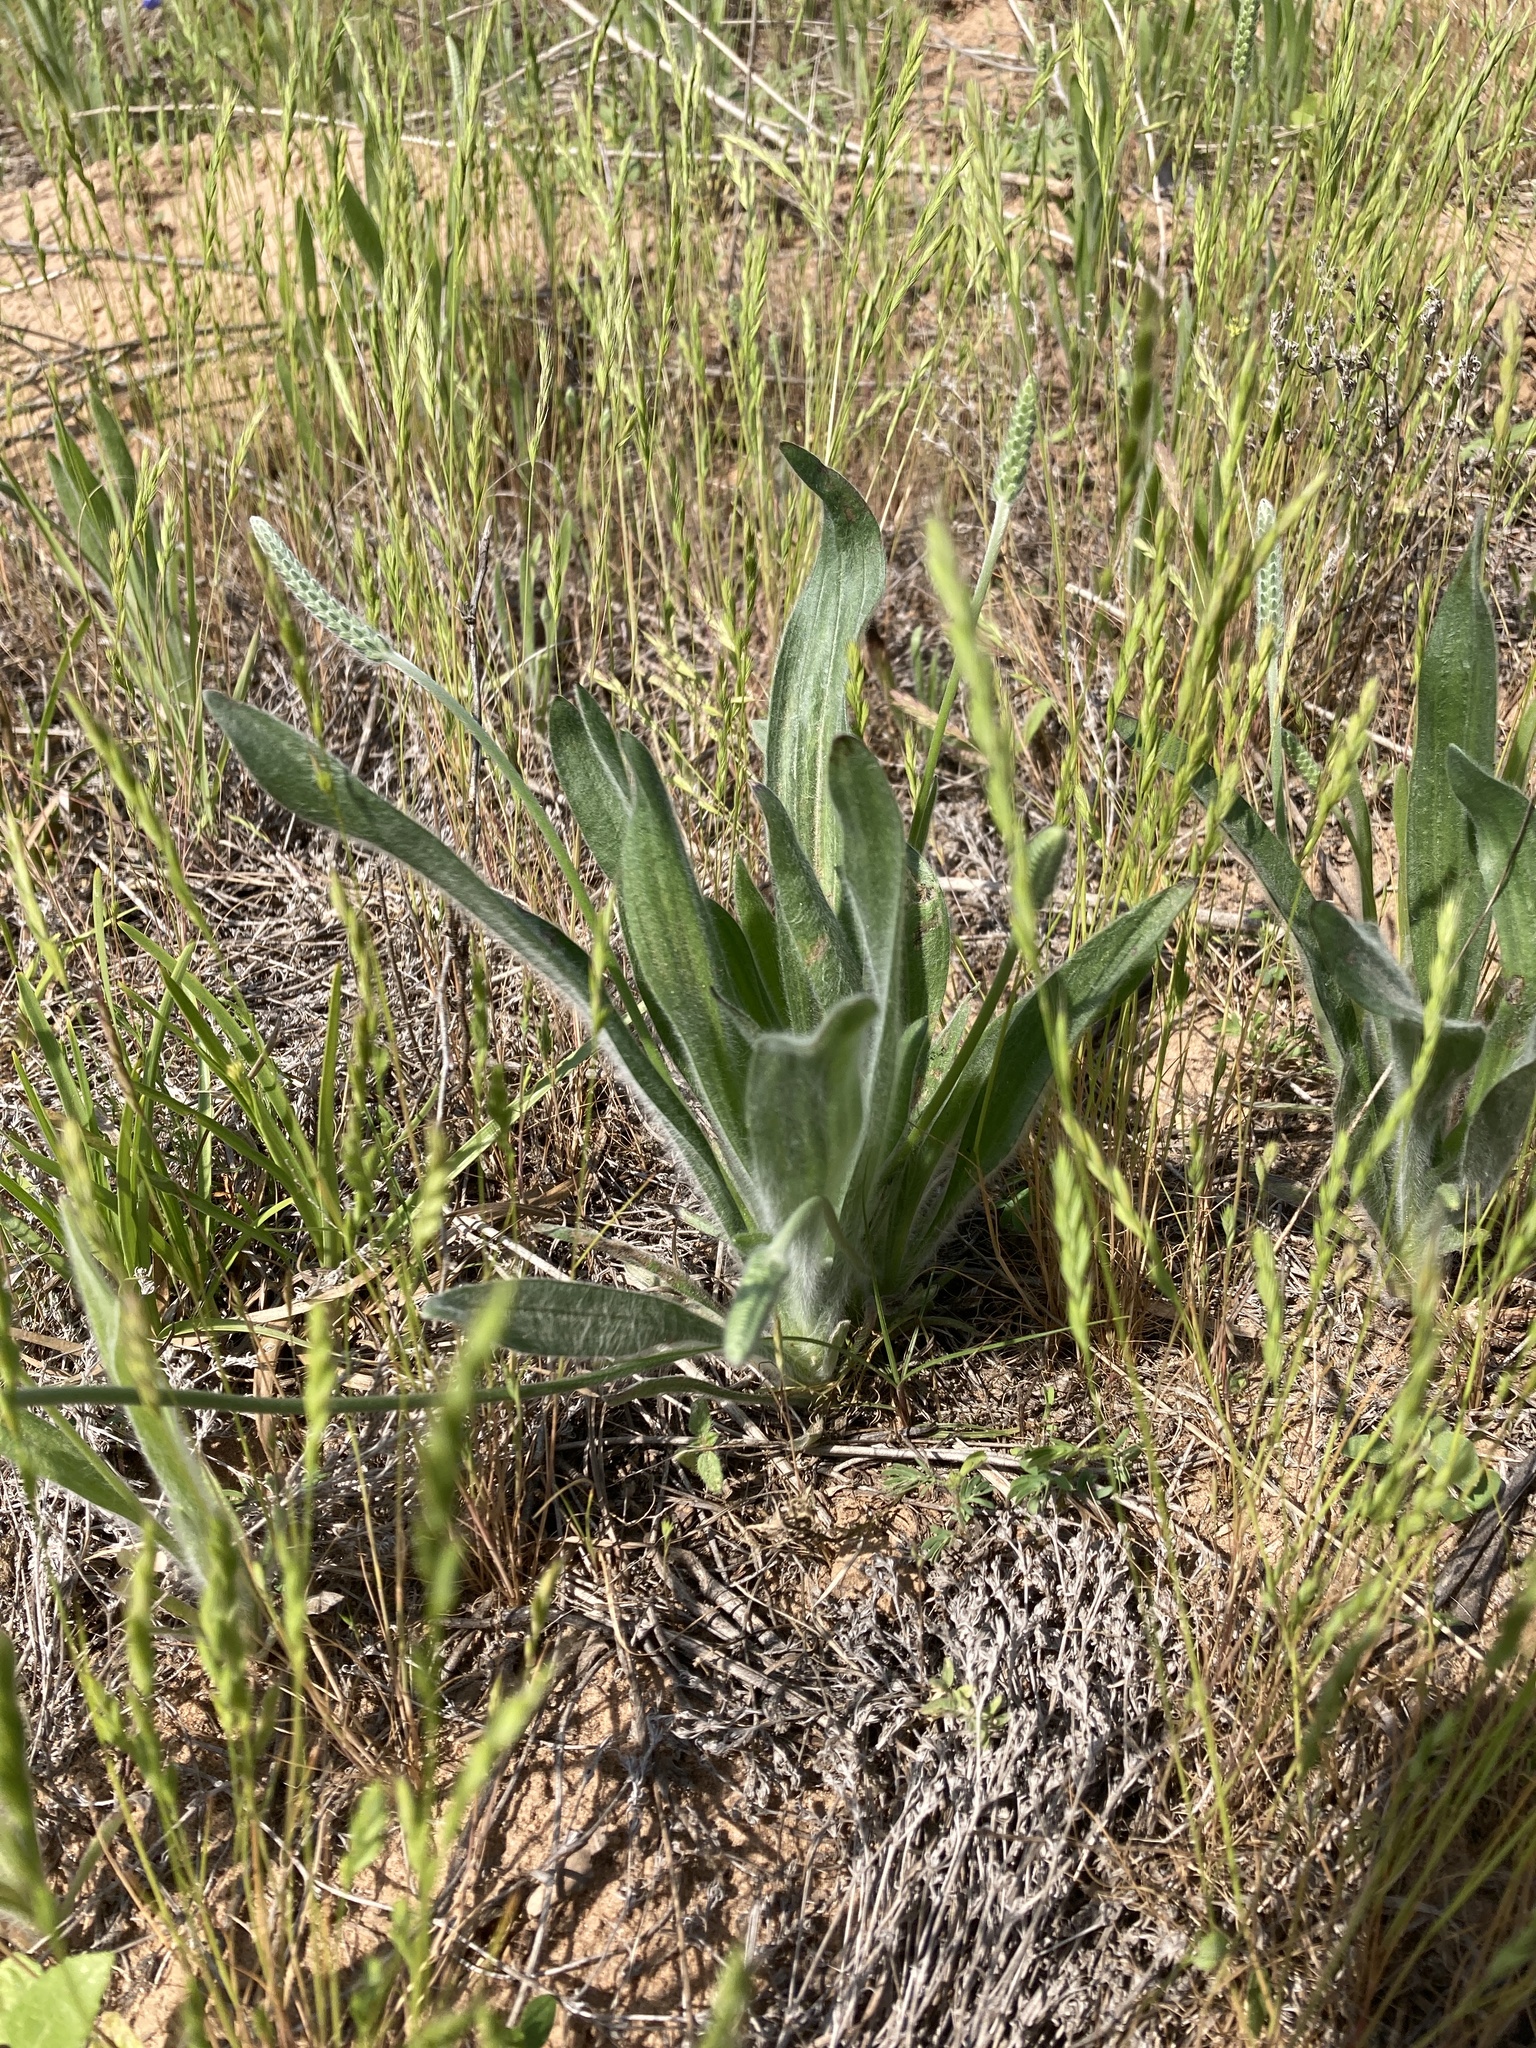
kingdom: Plantae
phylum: Tracheophyta
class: Magnoliopsida
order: Lamiales
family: Plantaginaceae
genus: Plantago
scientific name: Plantago hookeriana
